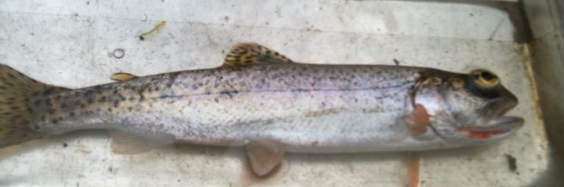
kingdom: Animalia
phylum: Chordata
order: Salmoniformes
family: Salmonidae
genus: Oncorhynchus
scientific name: Oncorhynchus clarkii
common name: Cutthroat trout
